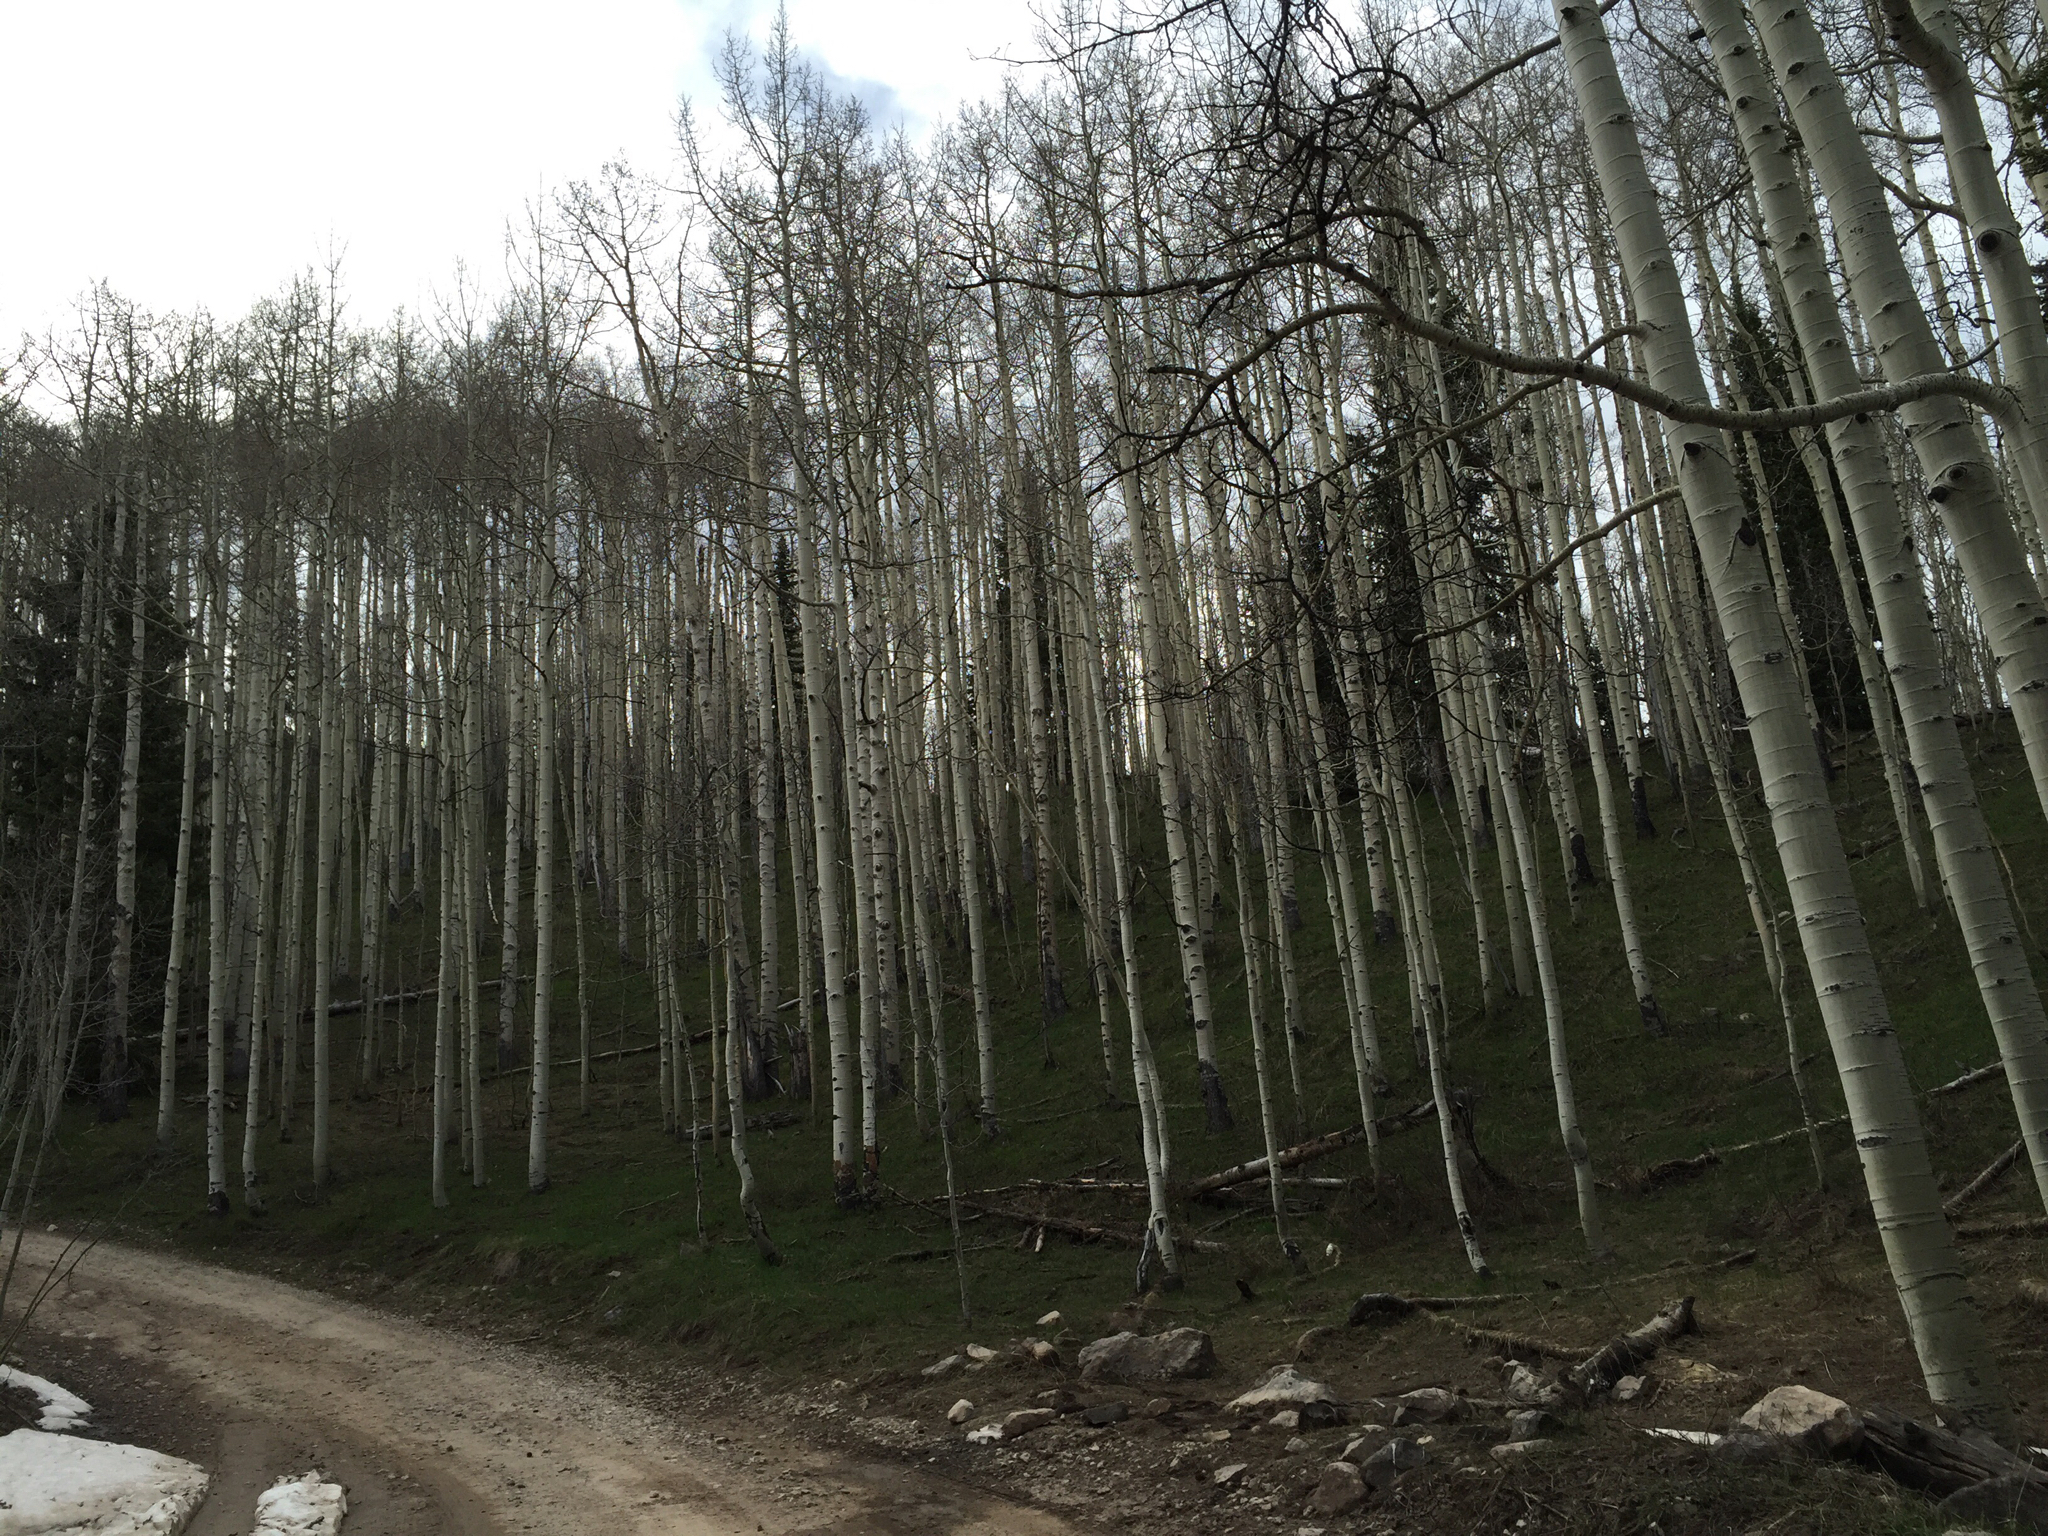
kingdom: Plantae
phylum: Tracheophyta
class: Magnoliopsida
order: Malpighiales
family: Salicaceae
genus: Populus
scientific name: Populus tremuloides
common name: Quaking aspen
